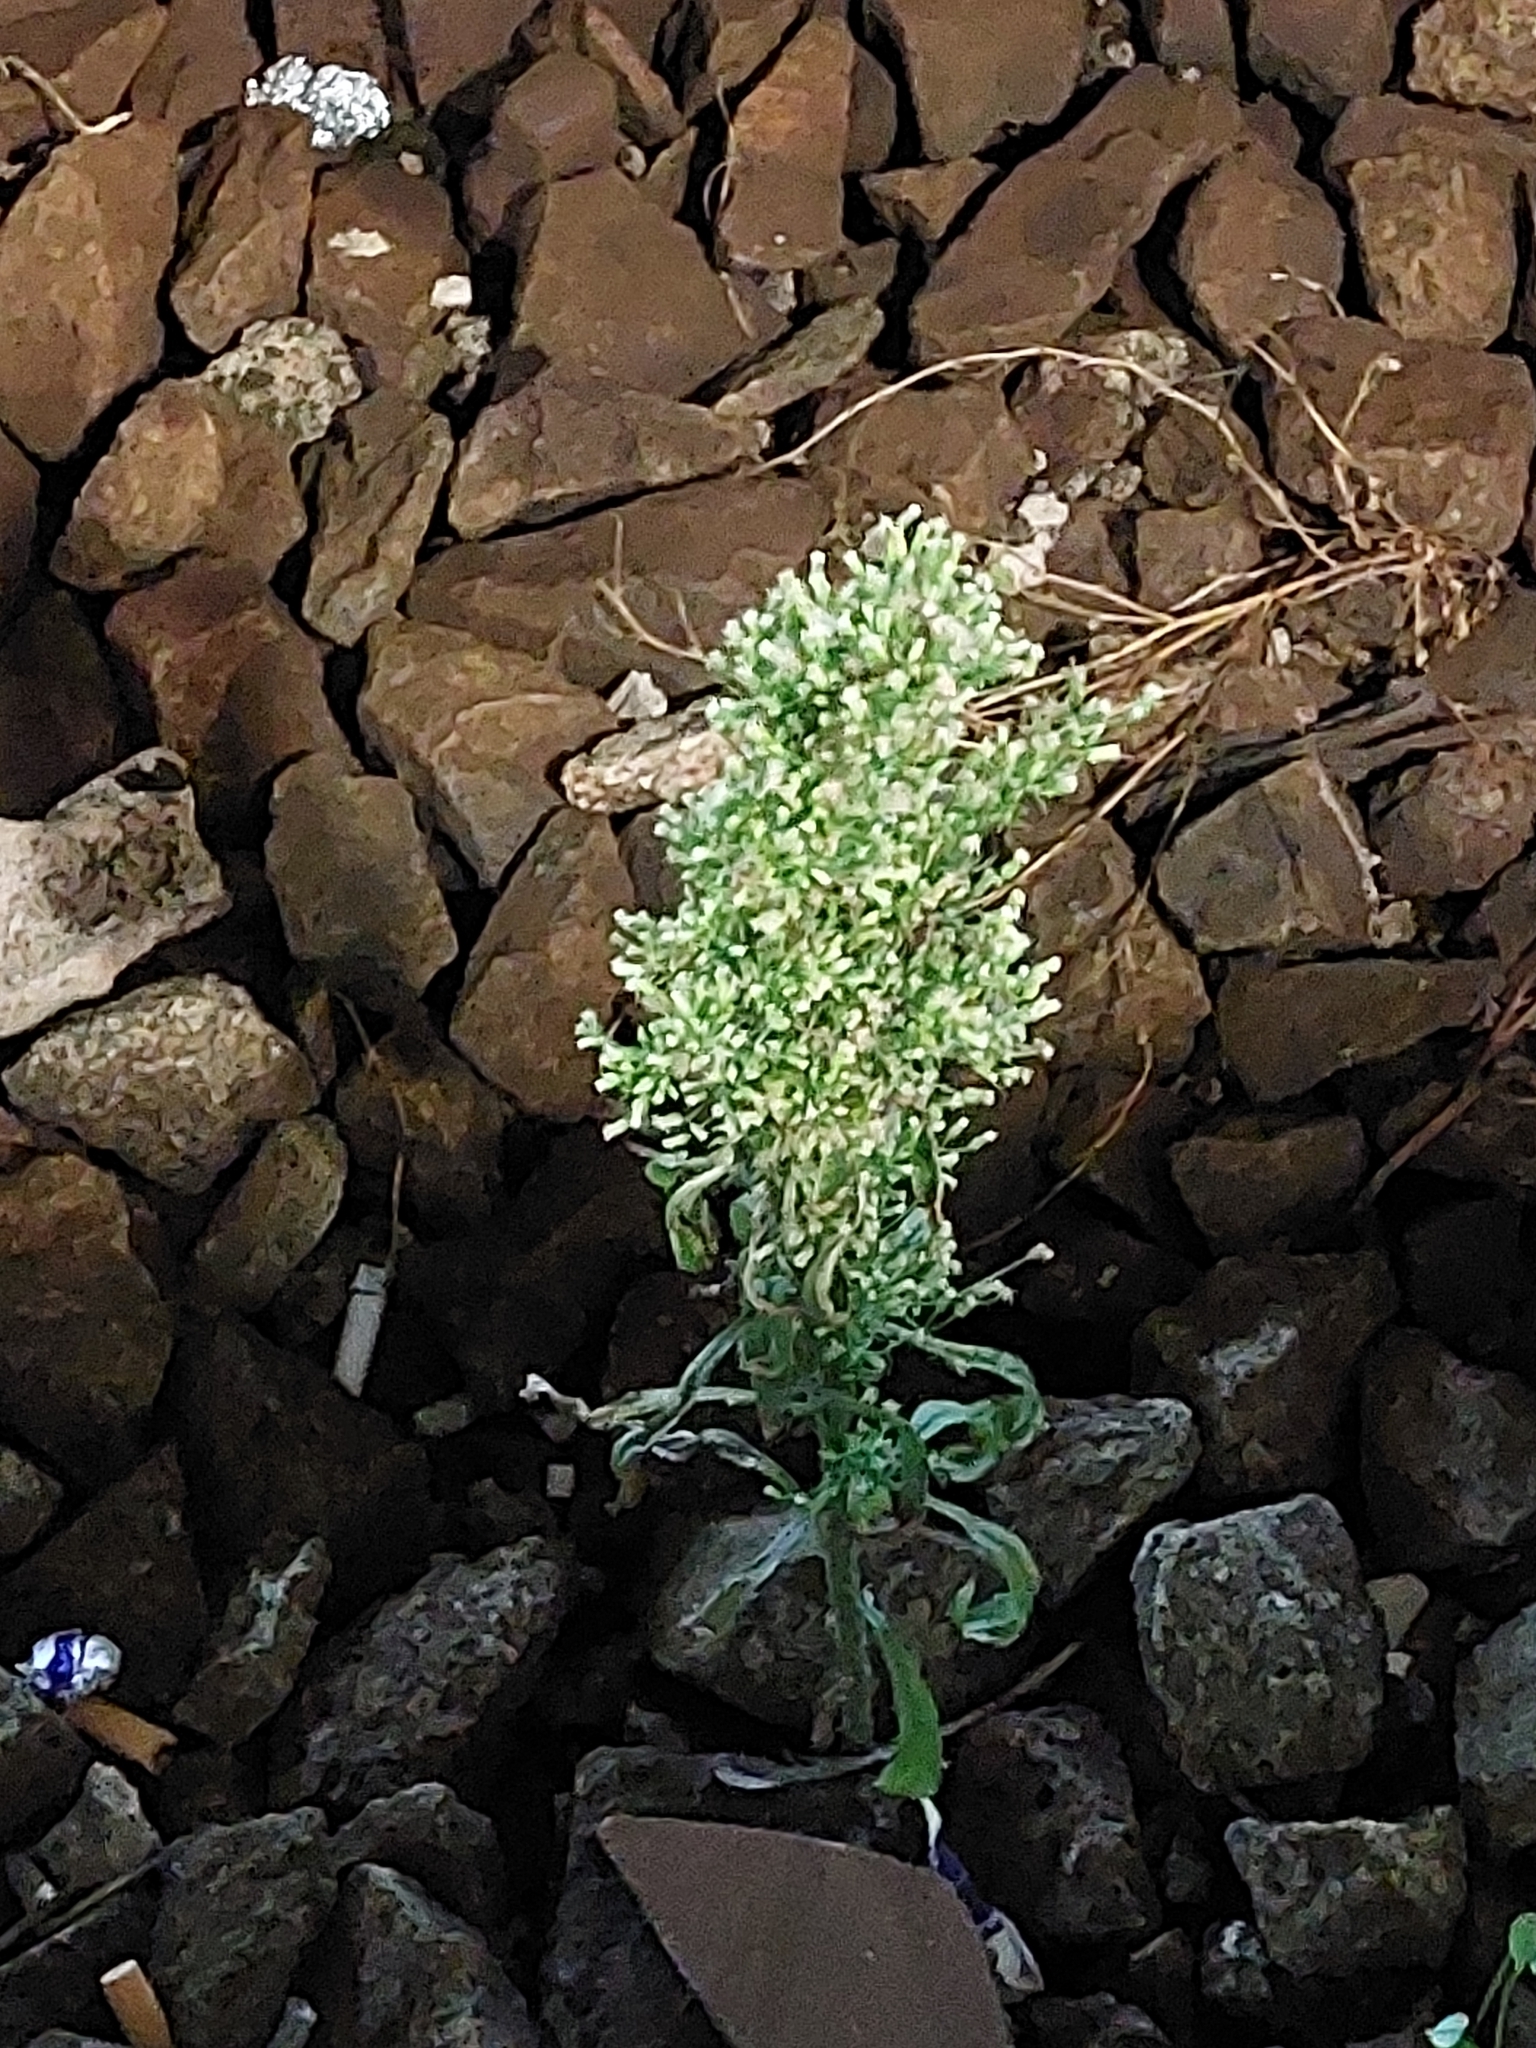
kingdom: Plantae
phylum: Tracheophyta
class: Magnoliopsida
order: Asterales
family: Asteraceae
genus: Erigeron
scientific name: Erigeron canadensis
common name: Canadian fleabane
